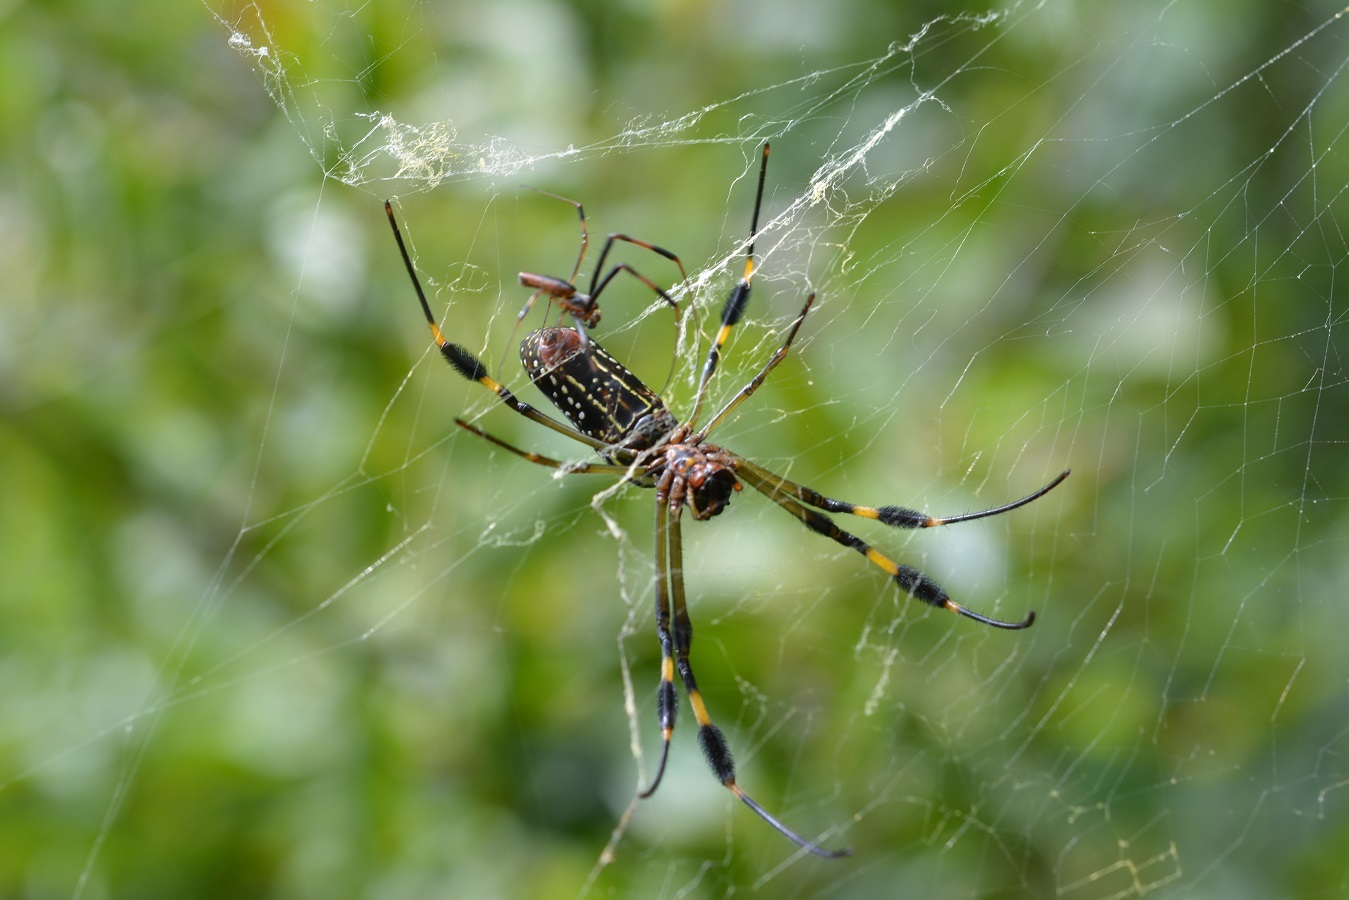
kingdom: Animalia
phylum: Arthropoda
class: Arachnida
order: Araneae
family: Araneidae
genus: Trichonephila
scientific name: Trichonephila clavipes
